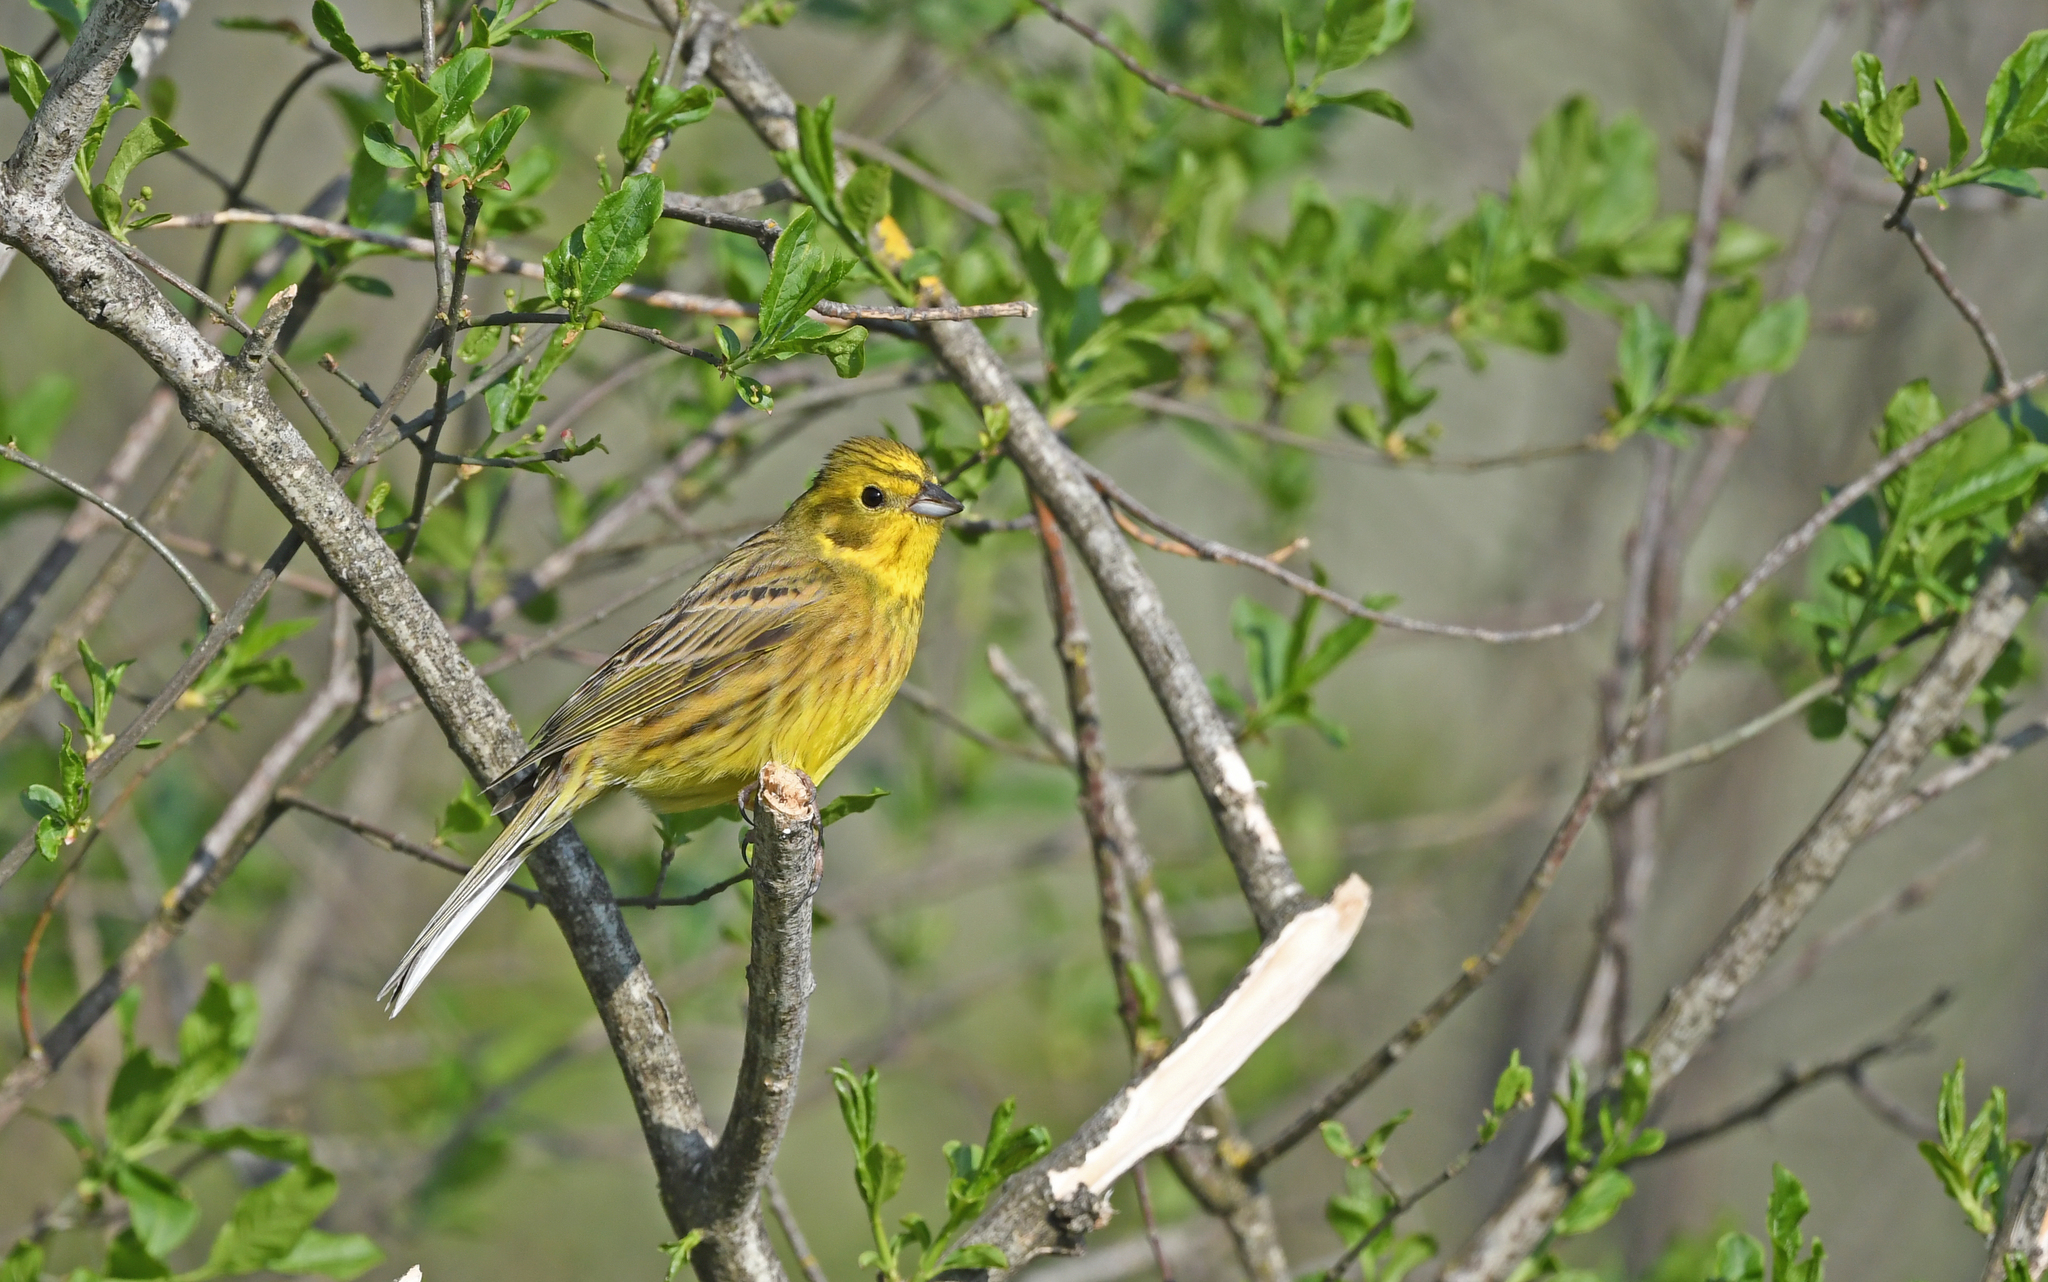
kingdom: Animalia
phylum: Chordata
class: Aves
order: Passeriformes
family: Emberizidae
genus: Emberiza
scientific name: Emberiza citrinella
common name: Yellowhammer
